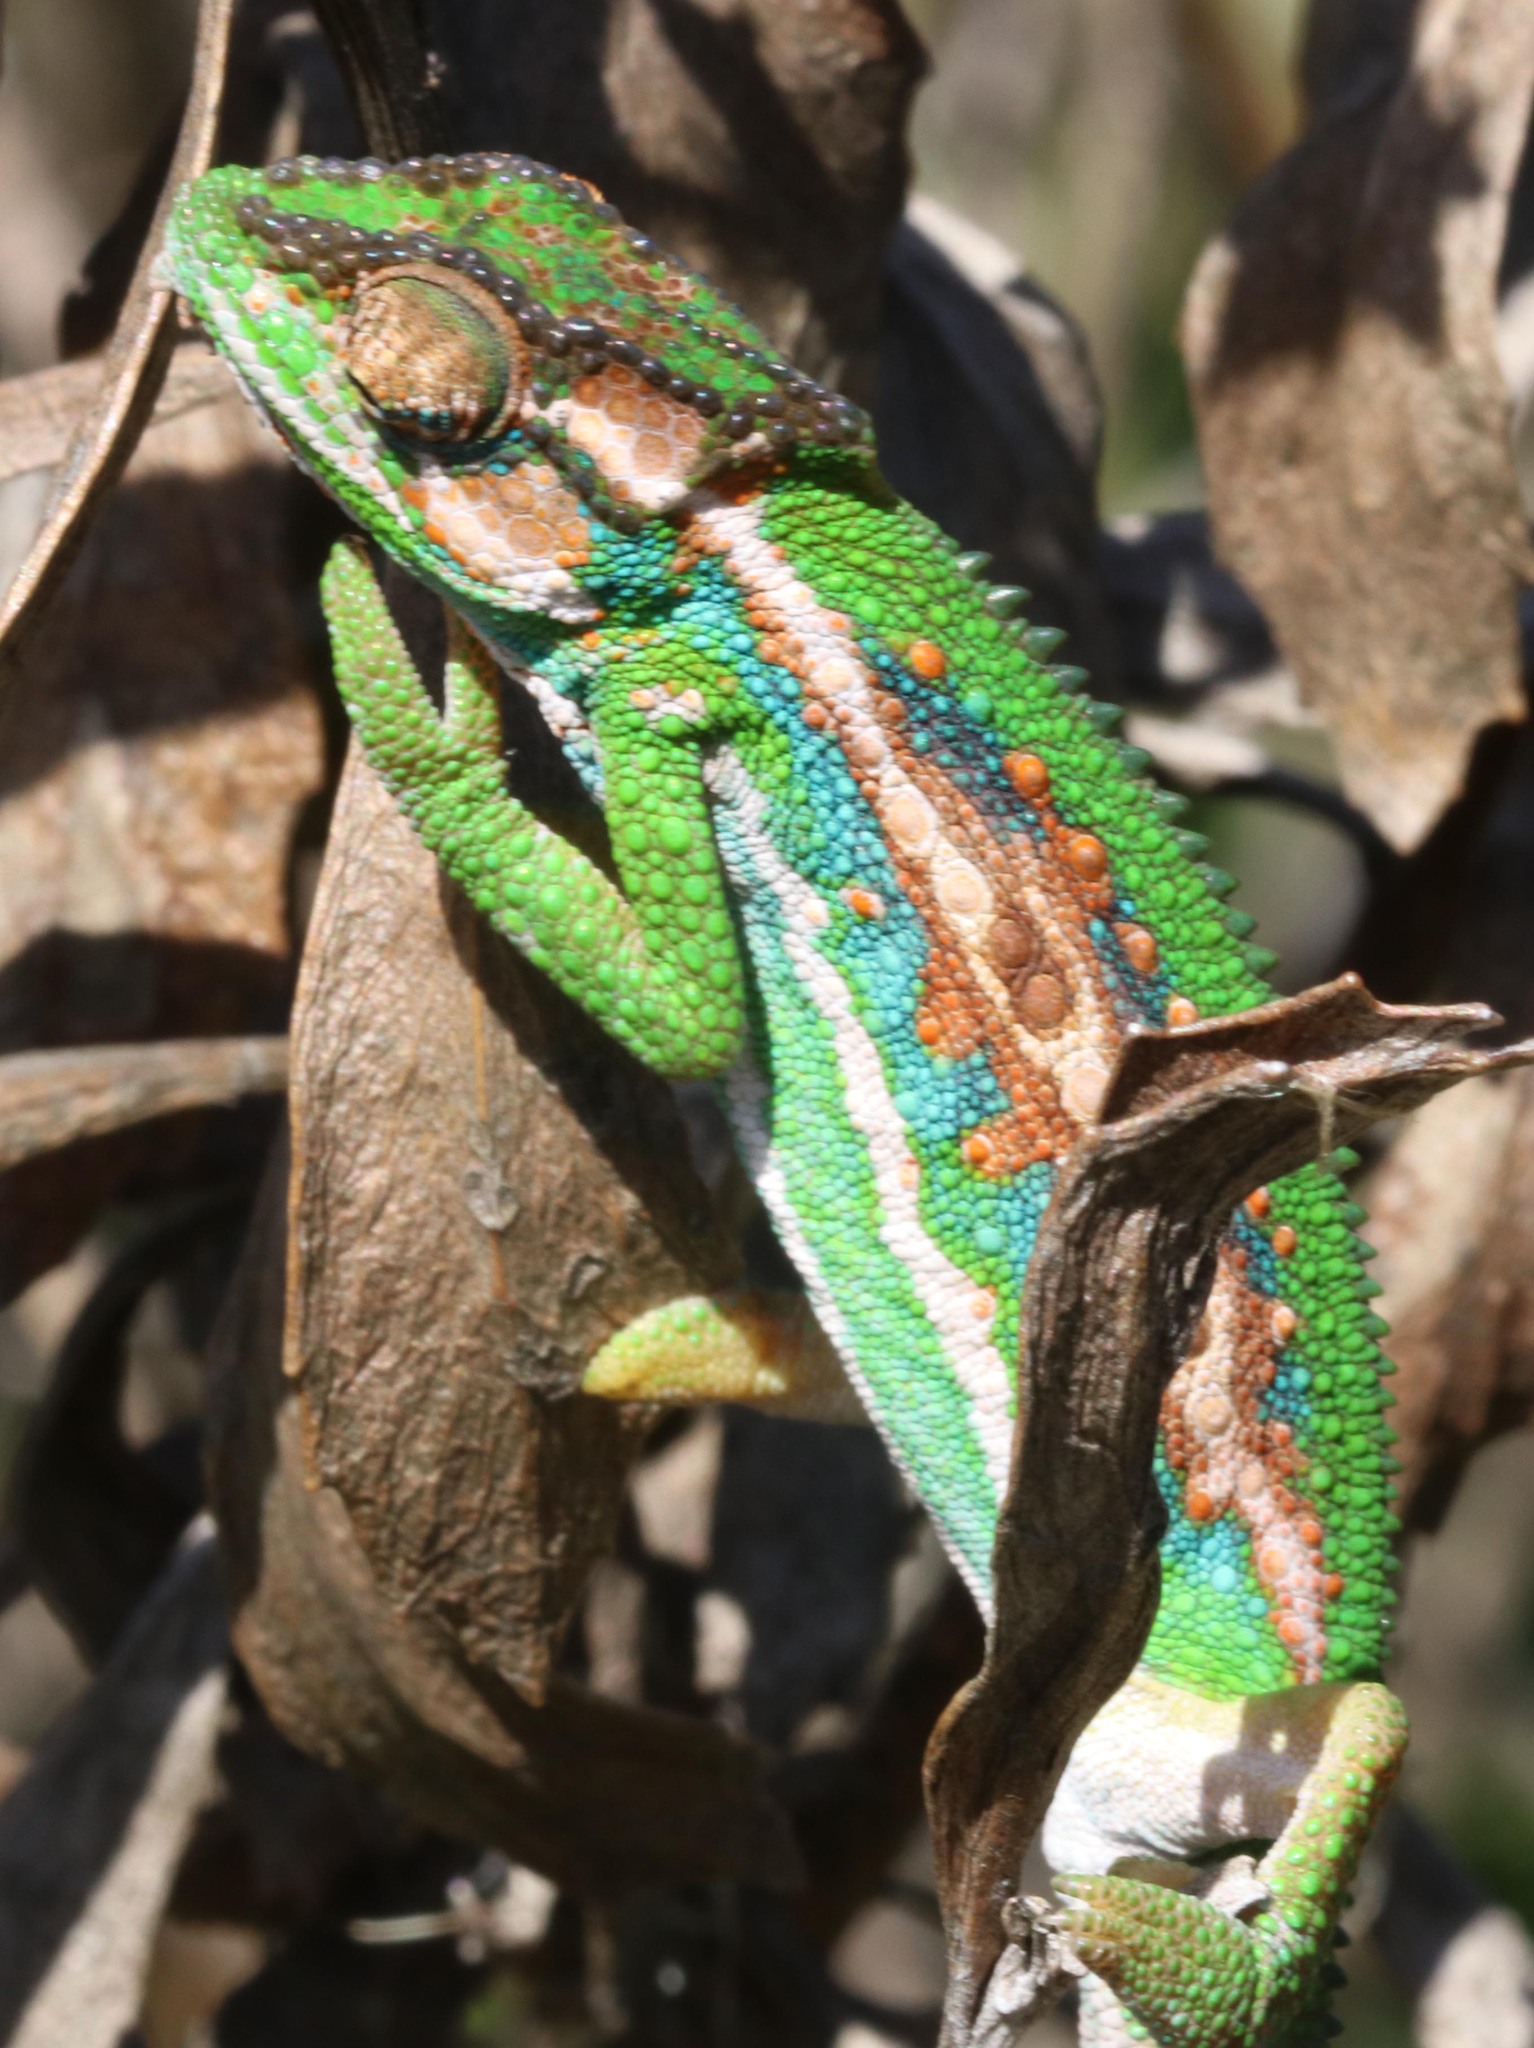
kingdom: Animalia
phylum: Chordata
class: Squamata
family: Chamaeleonidae
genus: Bradypodion
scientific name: Bradypodion pumilum
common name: Cape dwarf chameleon
